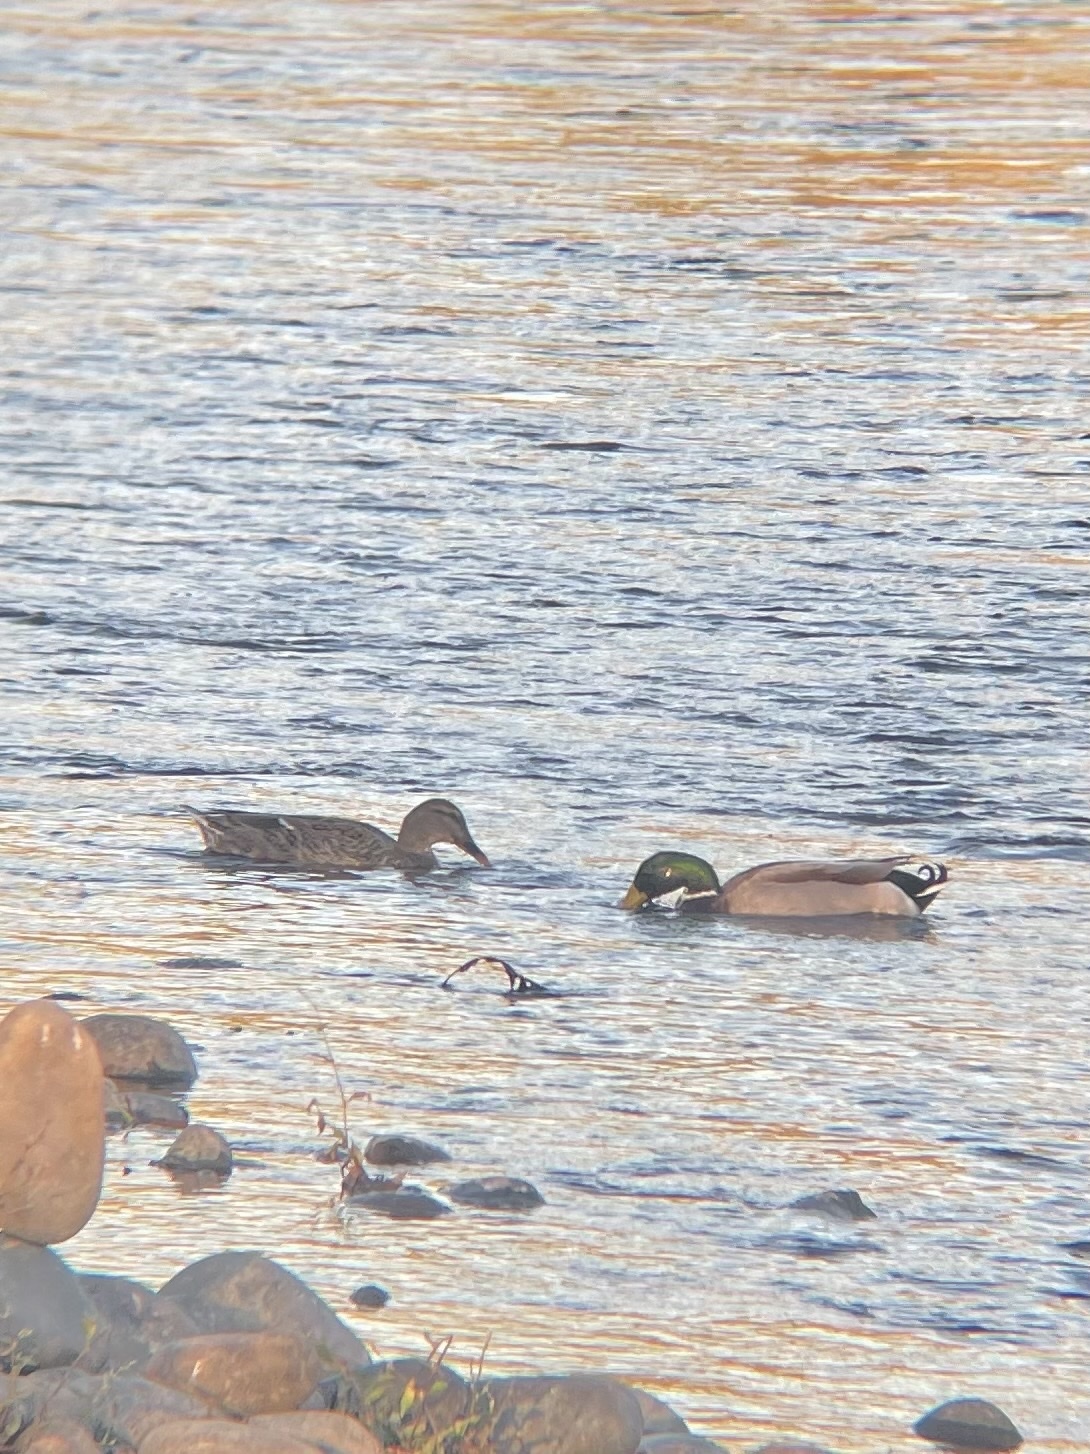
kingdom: Animalia
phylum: Chordata
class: Aves
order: Anseriformes
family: Anatidae
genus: Anas
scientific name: Anas platyrhynchos
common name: Mallard
